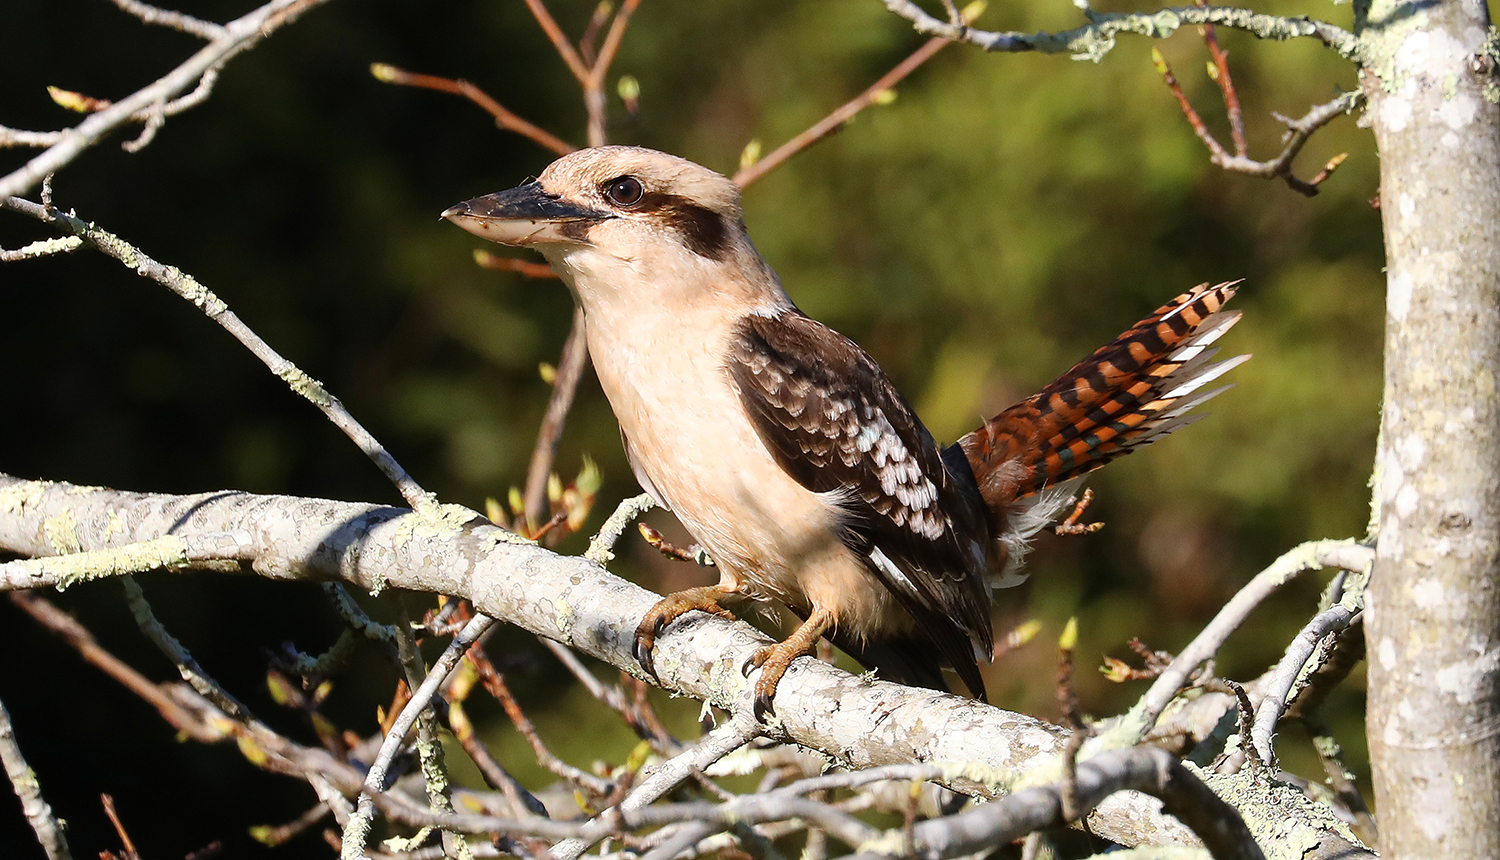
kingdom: Animalia
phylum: Chordata
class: Aves
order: Coraciiformes
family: Alcedinidae
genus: Dacelo
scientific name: Dacelo novaeguineae
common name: Laughing kookaburra
